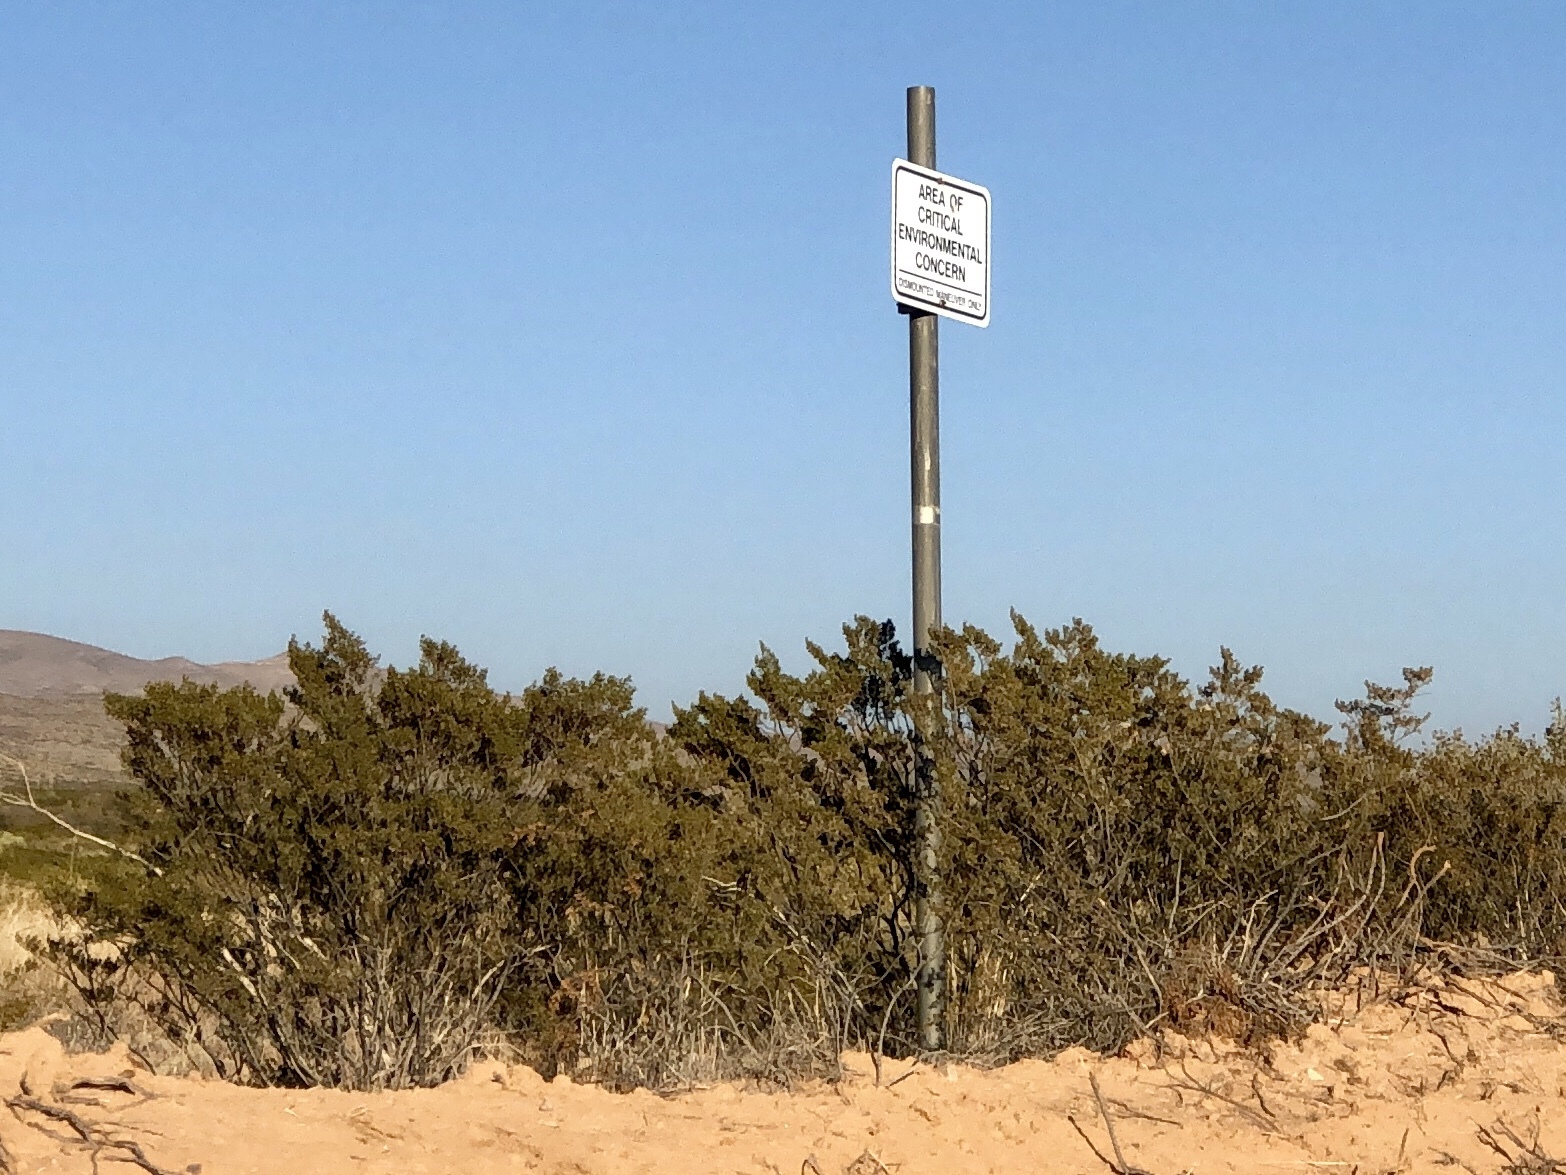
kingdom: Plantae
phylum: Tracheophyta
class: Magnoliopsida
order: Zygophyllales
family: Zygophyllaceae
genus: Larrea
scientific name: Larrea tridentata
